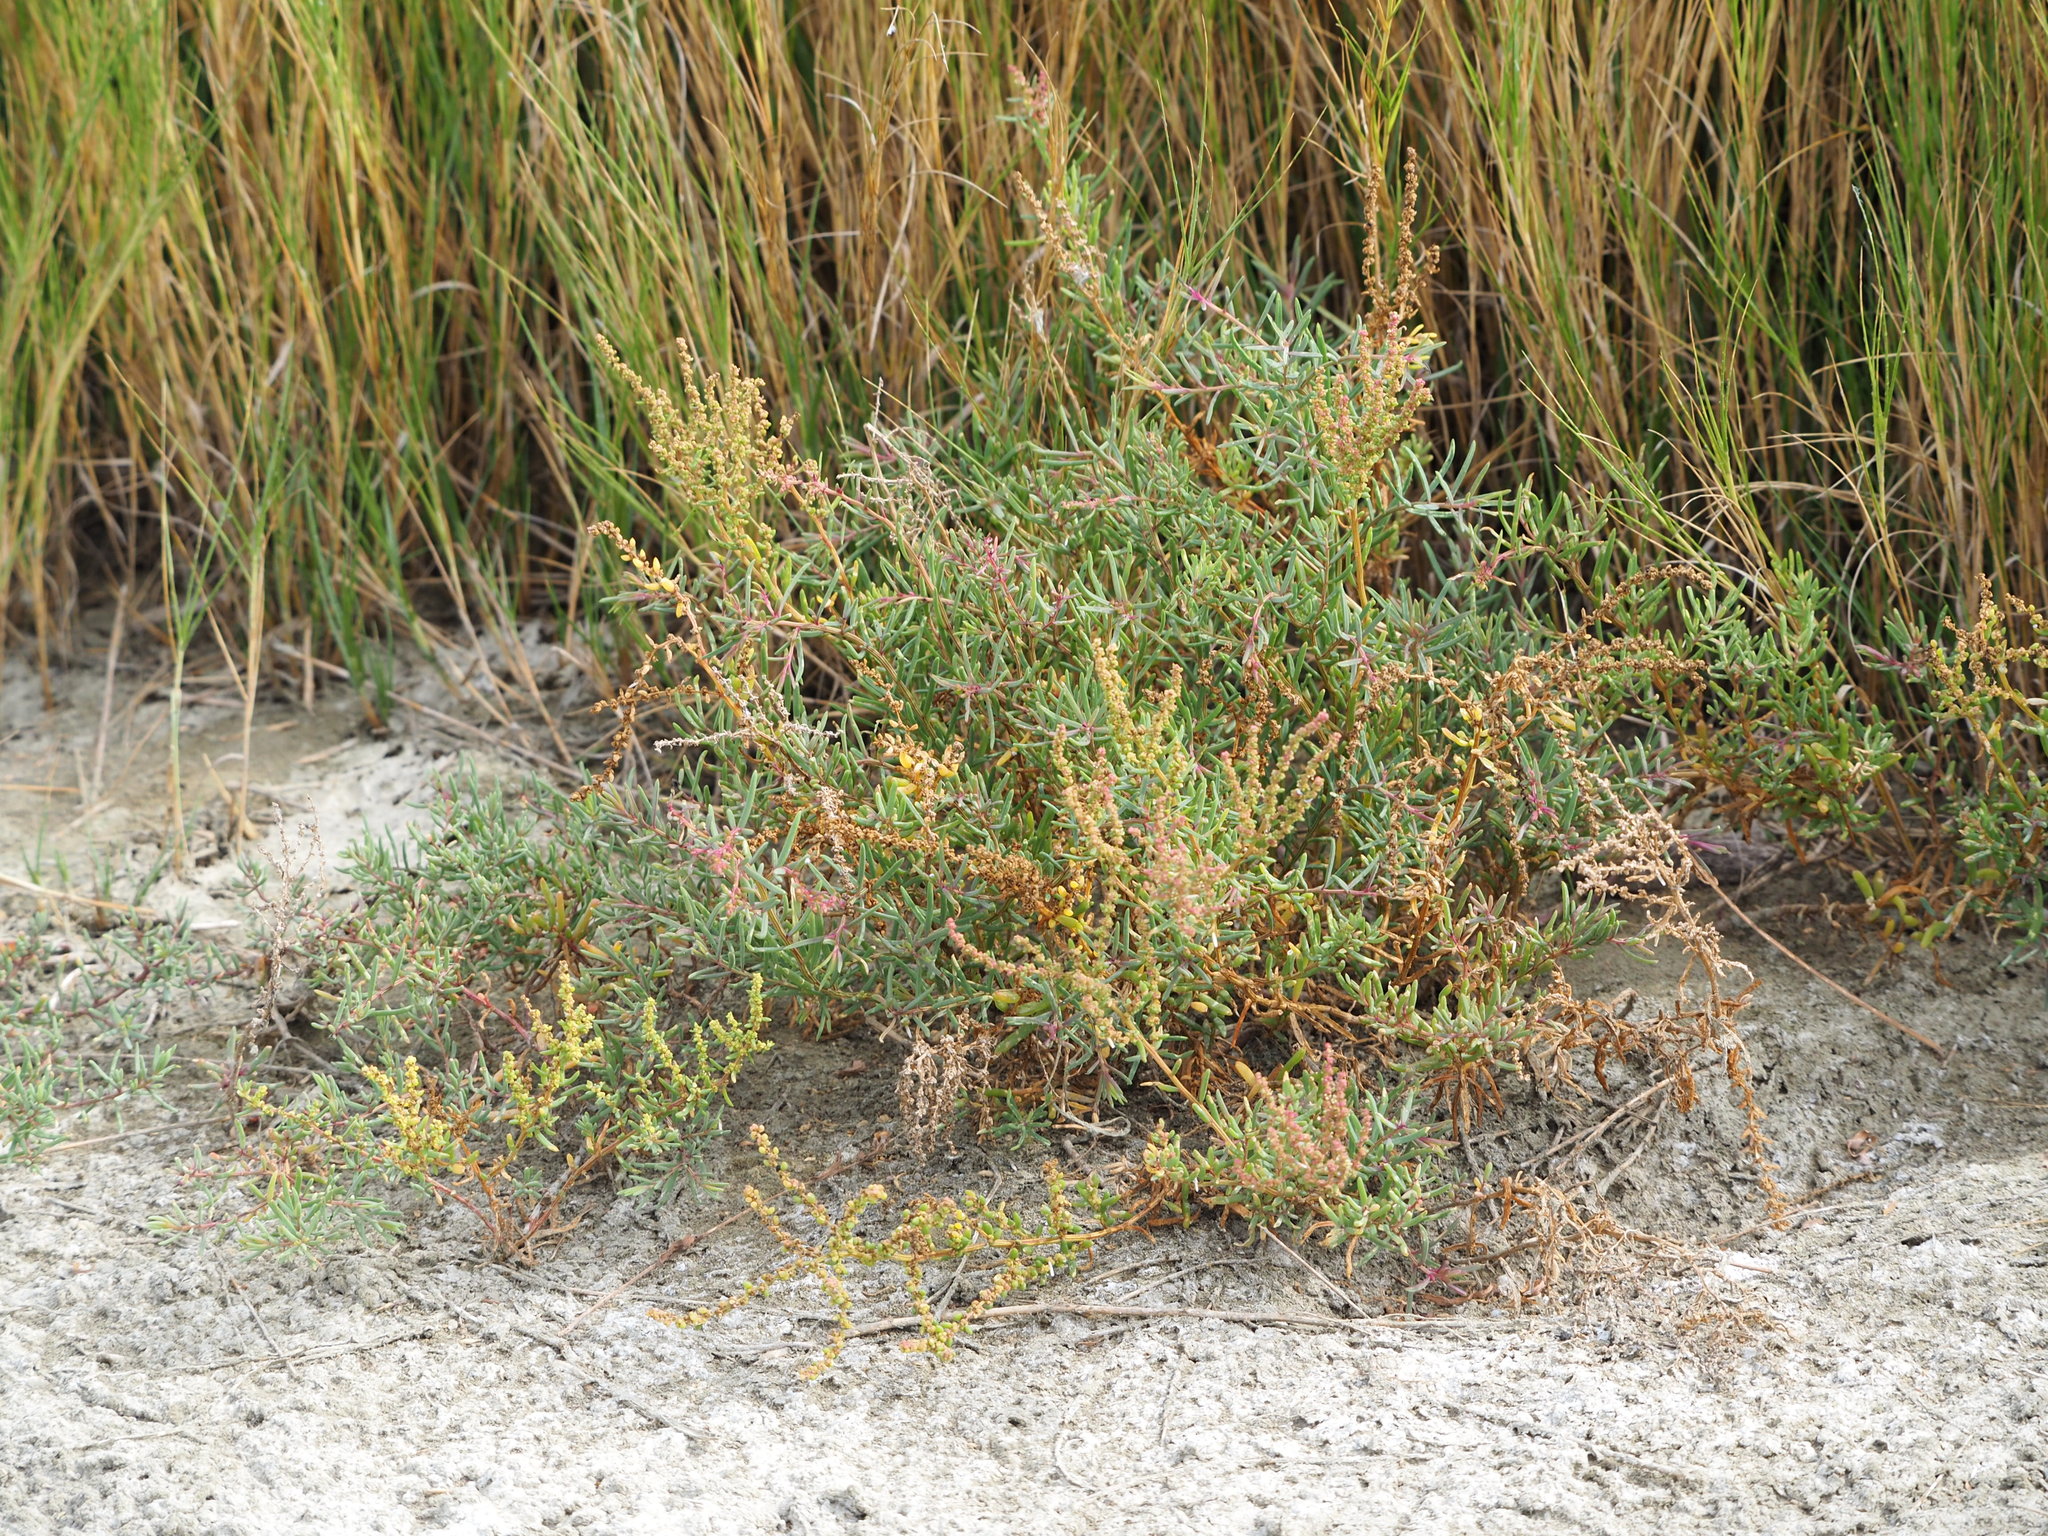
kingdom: Plantae
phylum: Tracheophyta
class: Magnoliopsida
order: Caryophyllales
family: Amaranthaceae
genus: Suaeda
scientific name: Suaeda maritima
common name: Annual sea-blite
